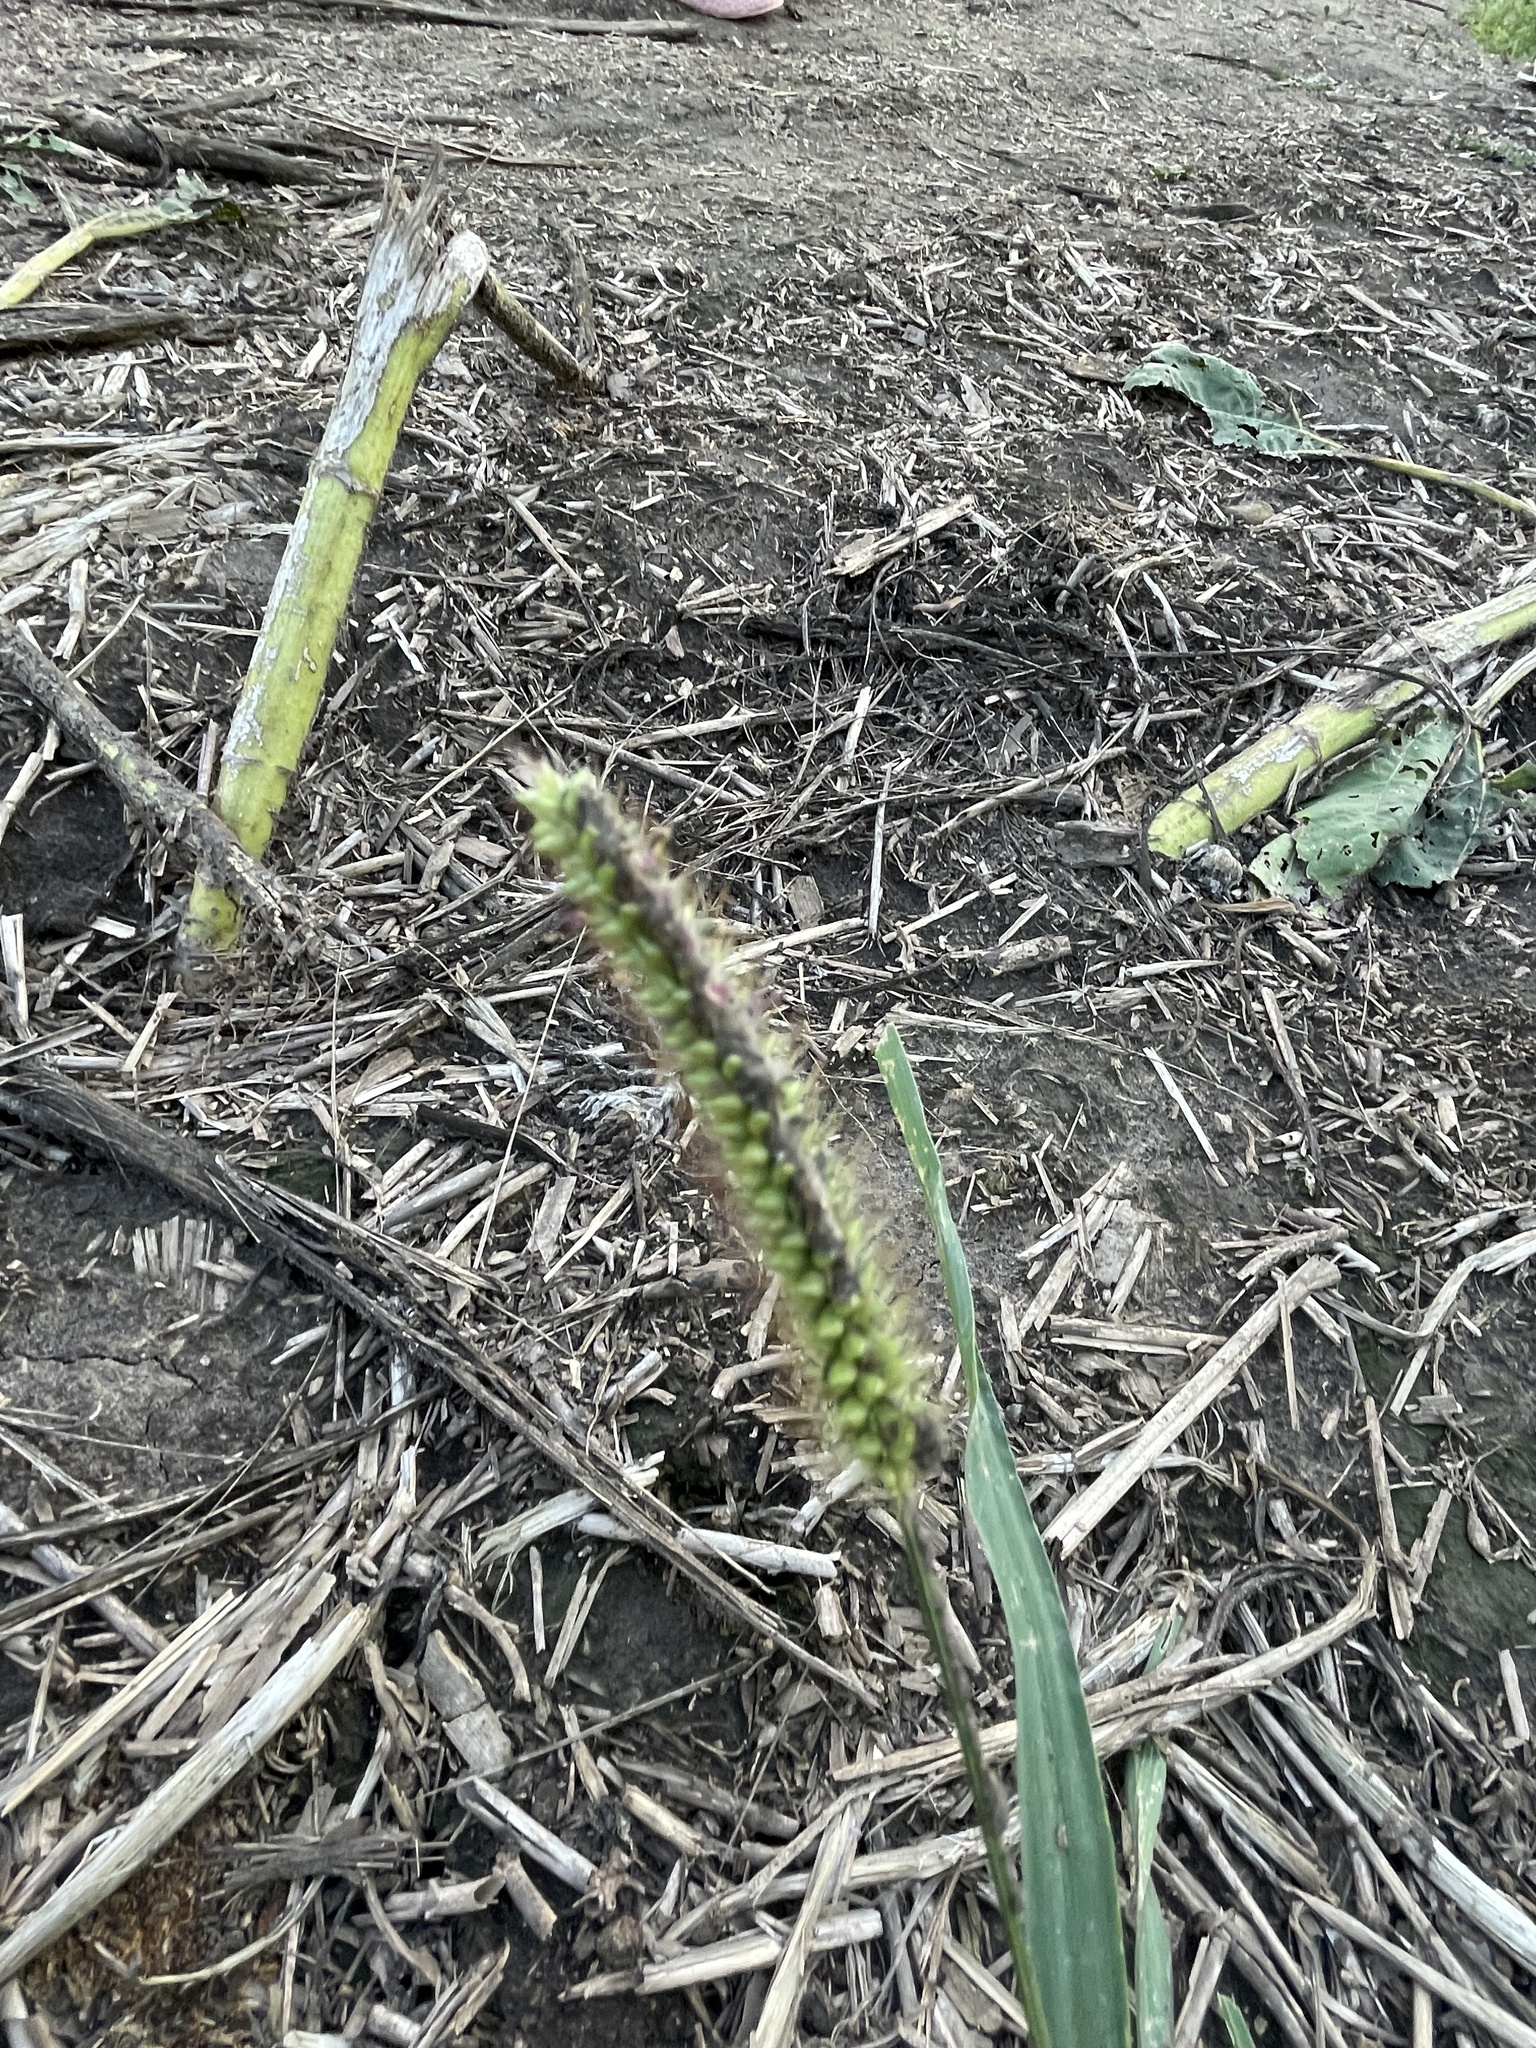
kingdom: Plantae
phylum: Tracheophyta
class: Liliopsida
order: Poales
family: Poaceae
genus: Setaria
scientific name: Setaria pumila
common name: Yellow bristle-grass
